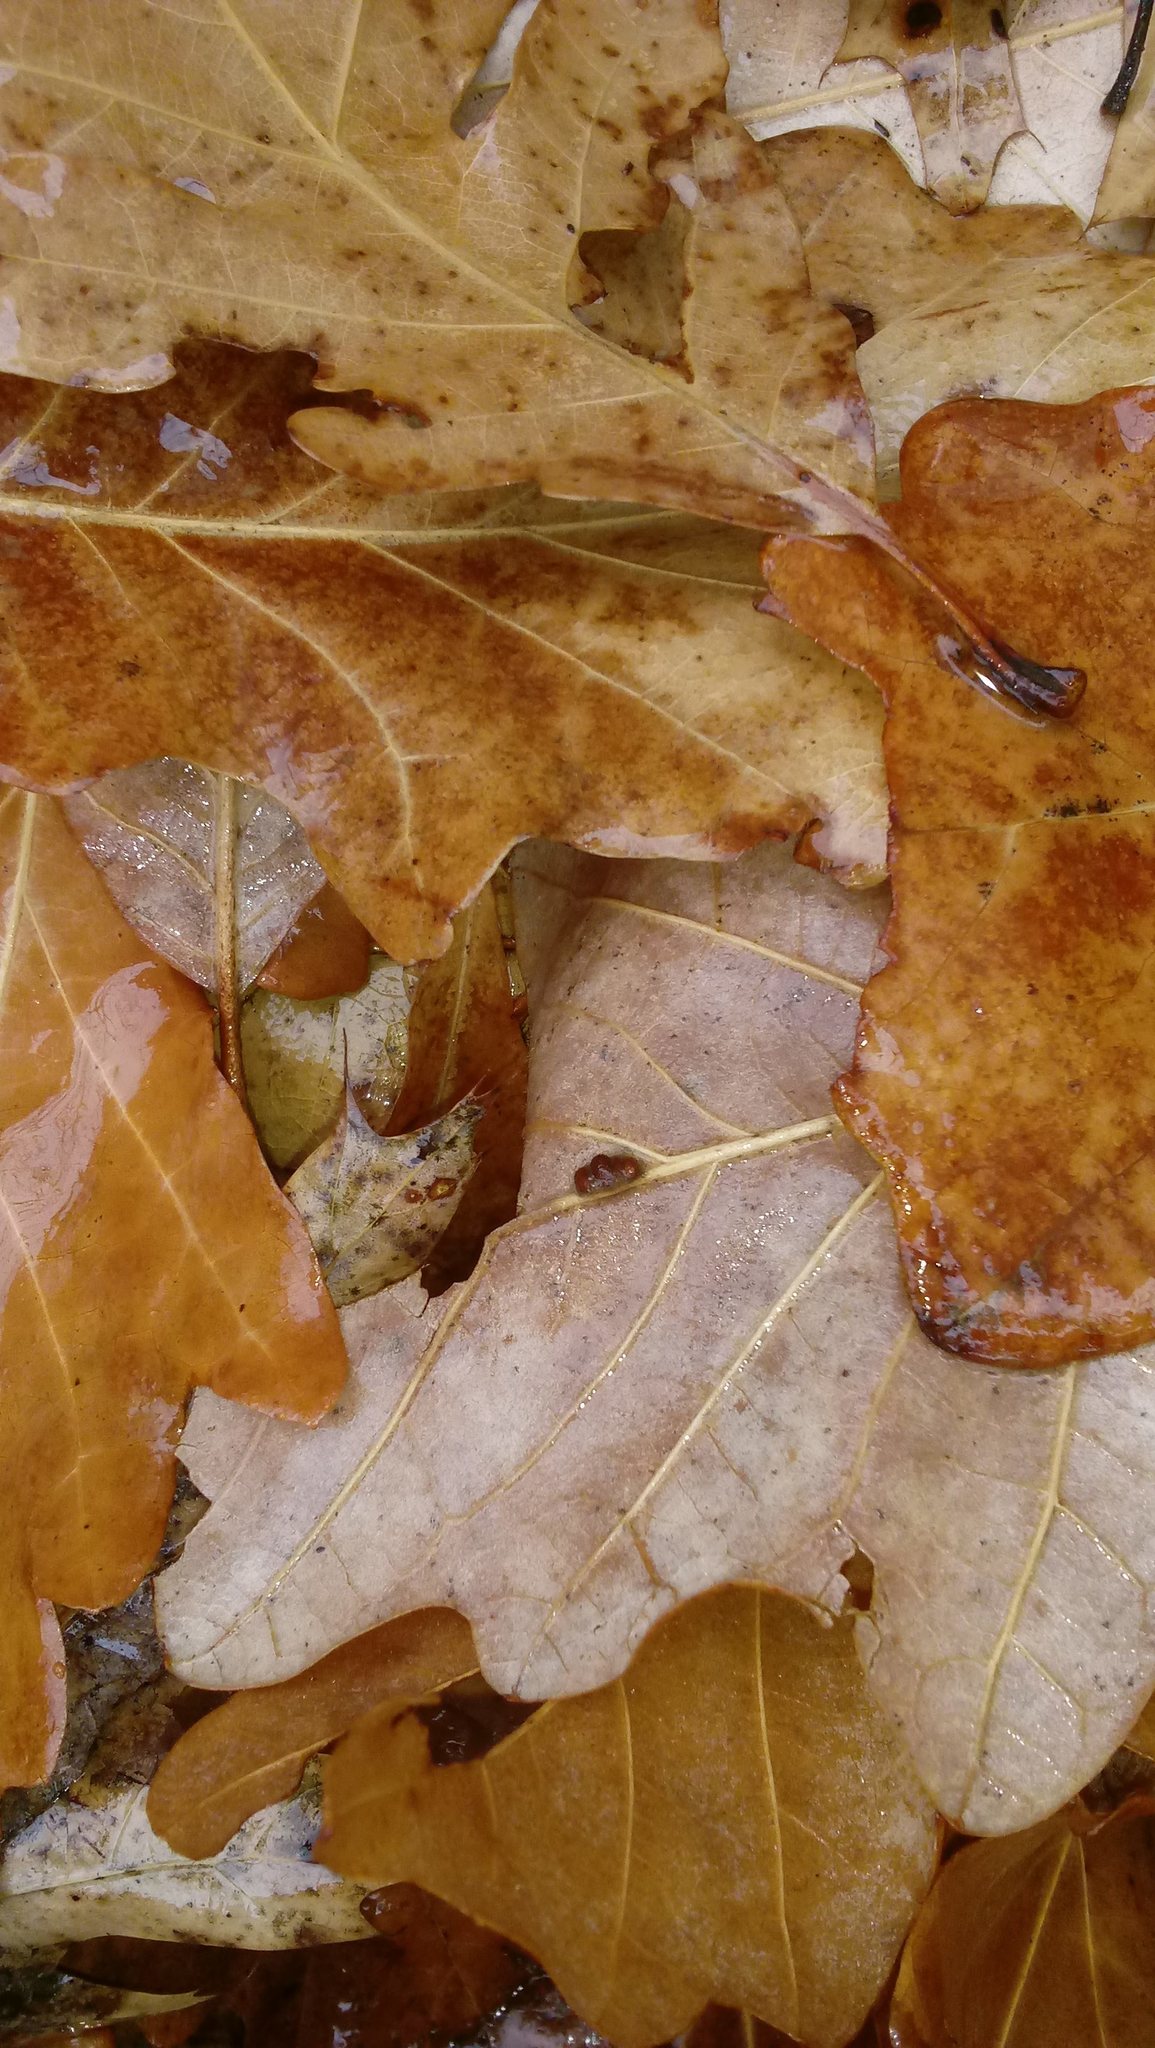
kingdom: Animalia
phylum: Arthropoda
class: Insecta
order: Hymenoptera
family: Cynipidae
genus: Andricus
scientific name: Andricus Druon ignotum
